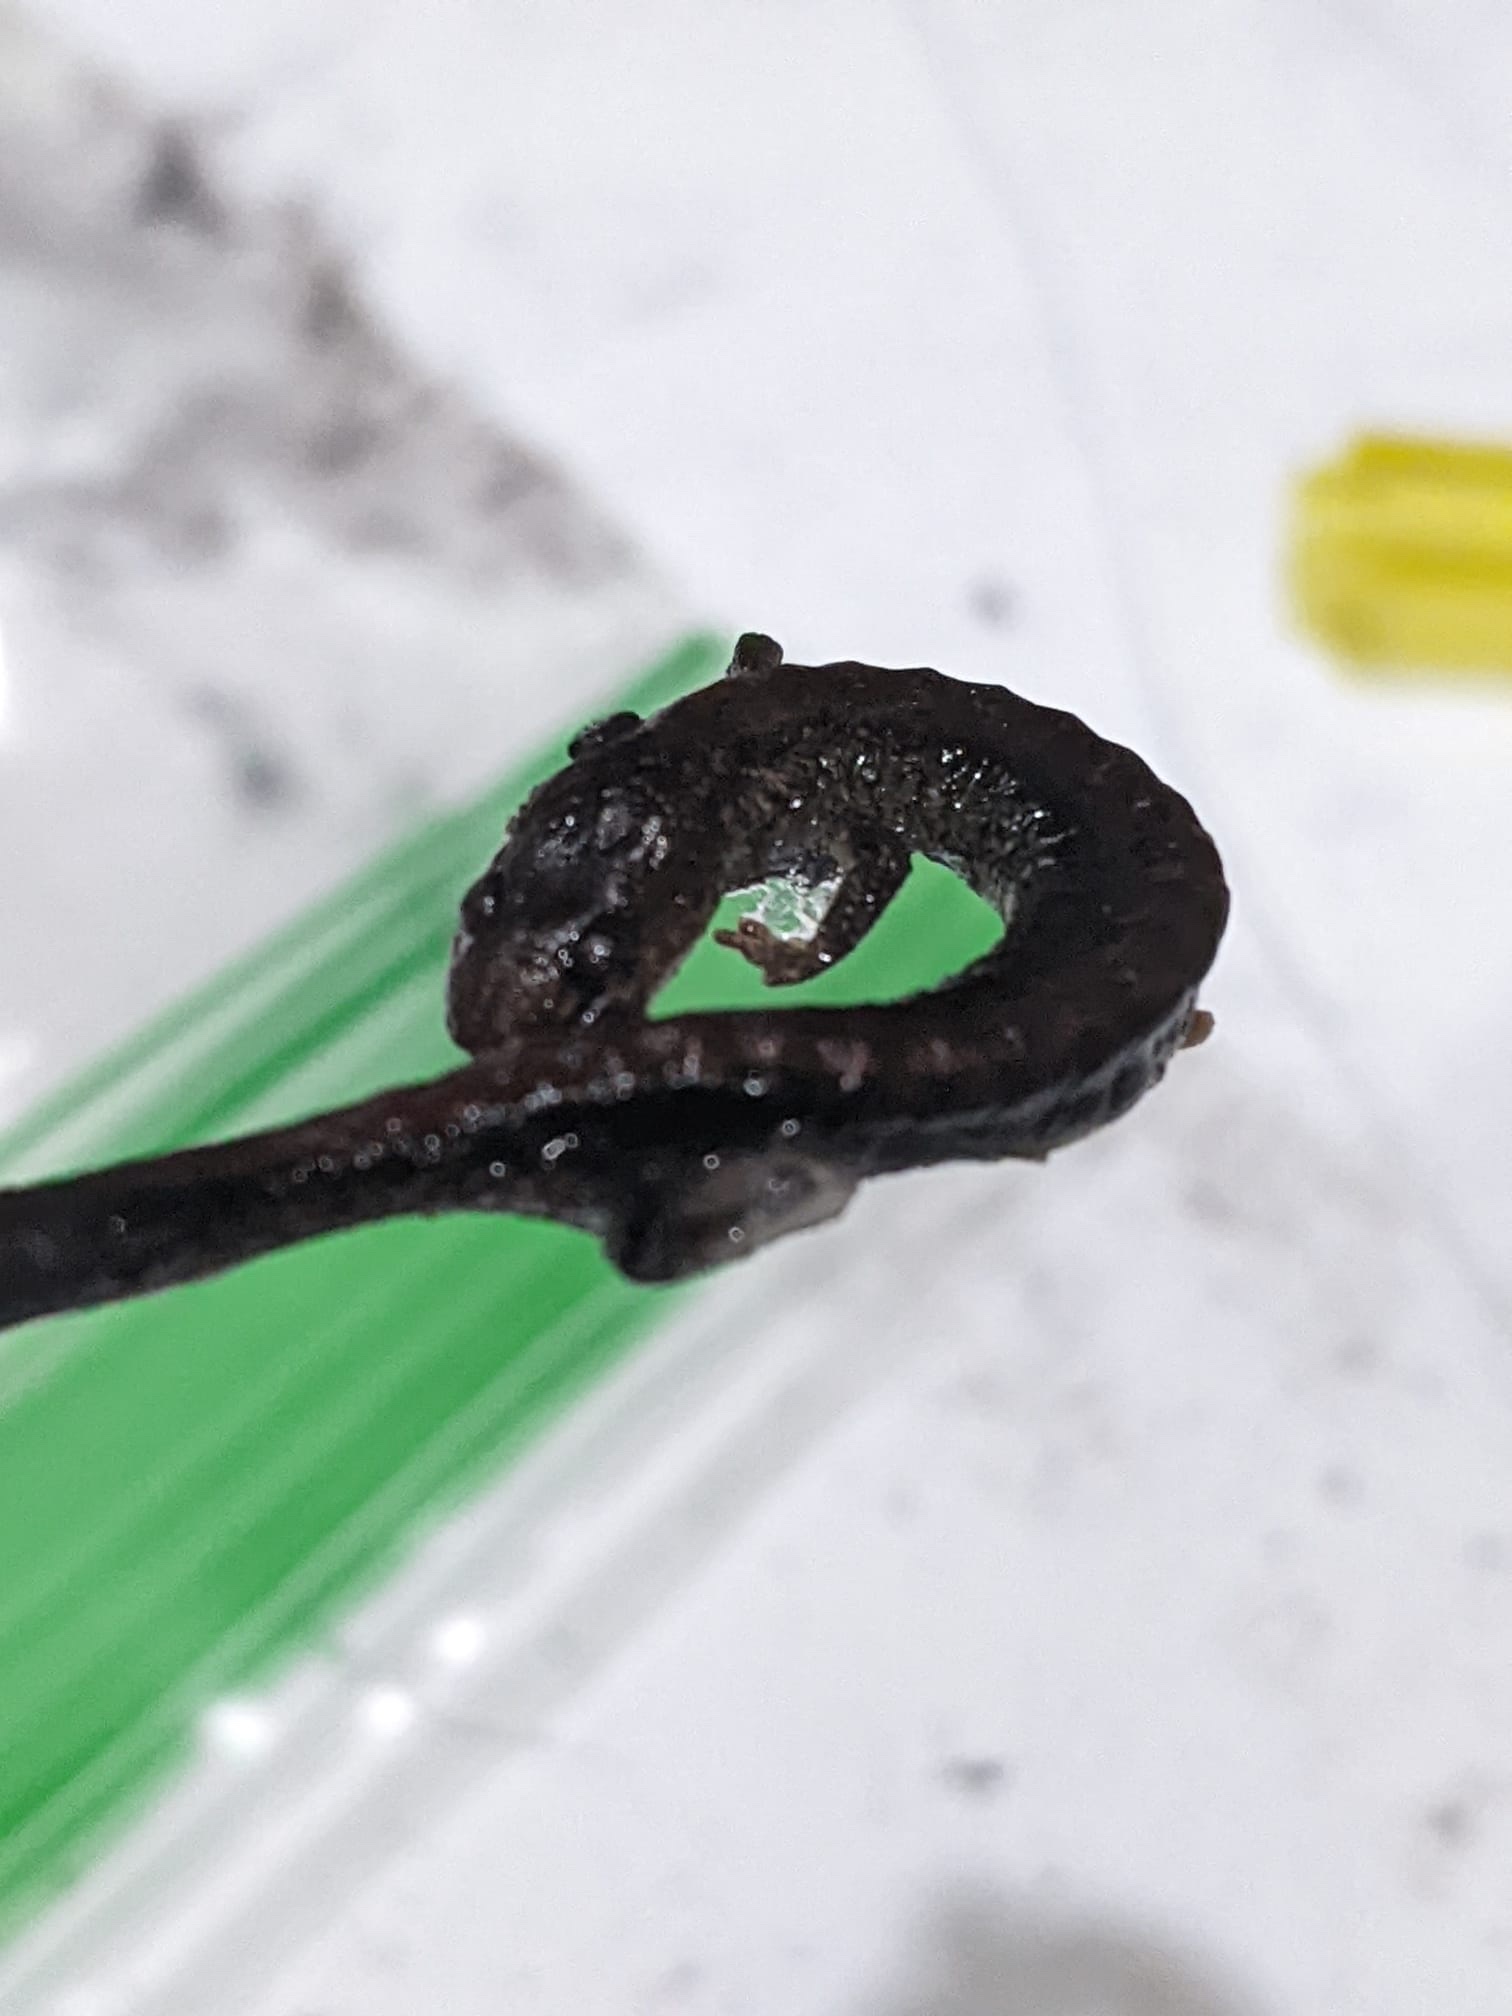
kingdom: Animalia
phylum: Chordata
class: Amphibia
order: Caudata
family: Plethodontidae
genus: Plethodon
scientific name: Plethodon cinereus
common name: Redback salamander
